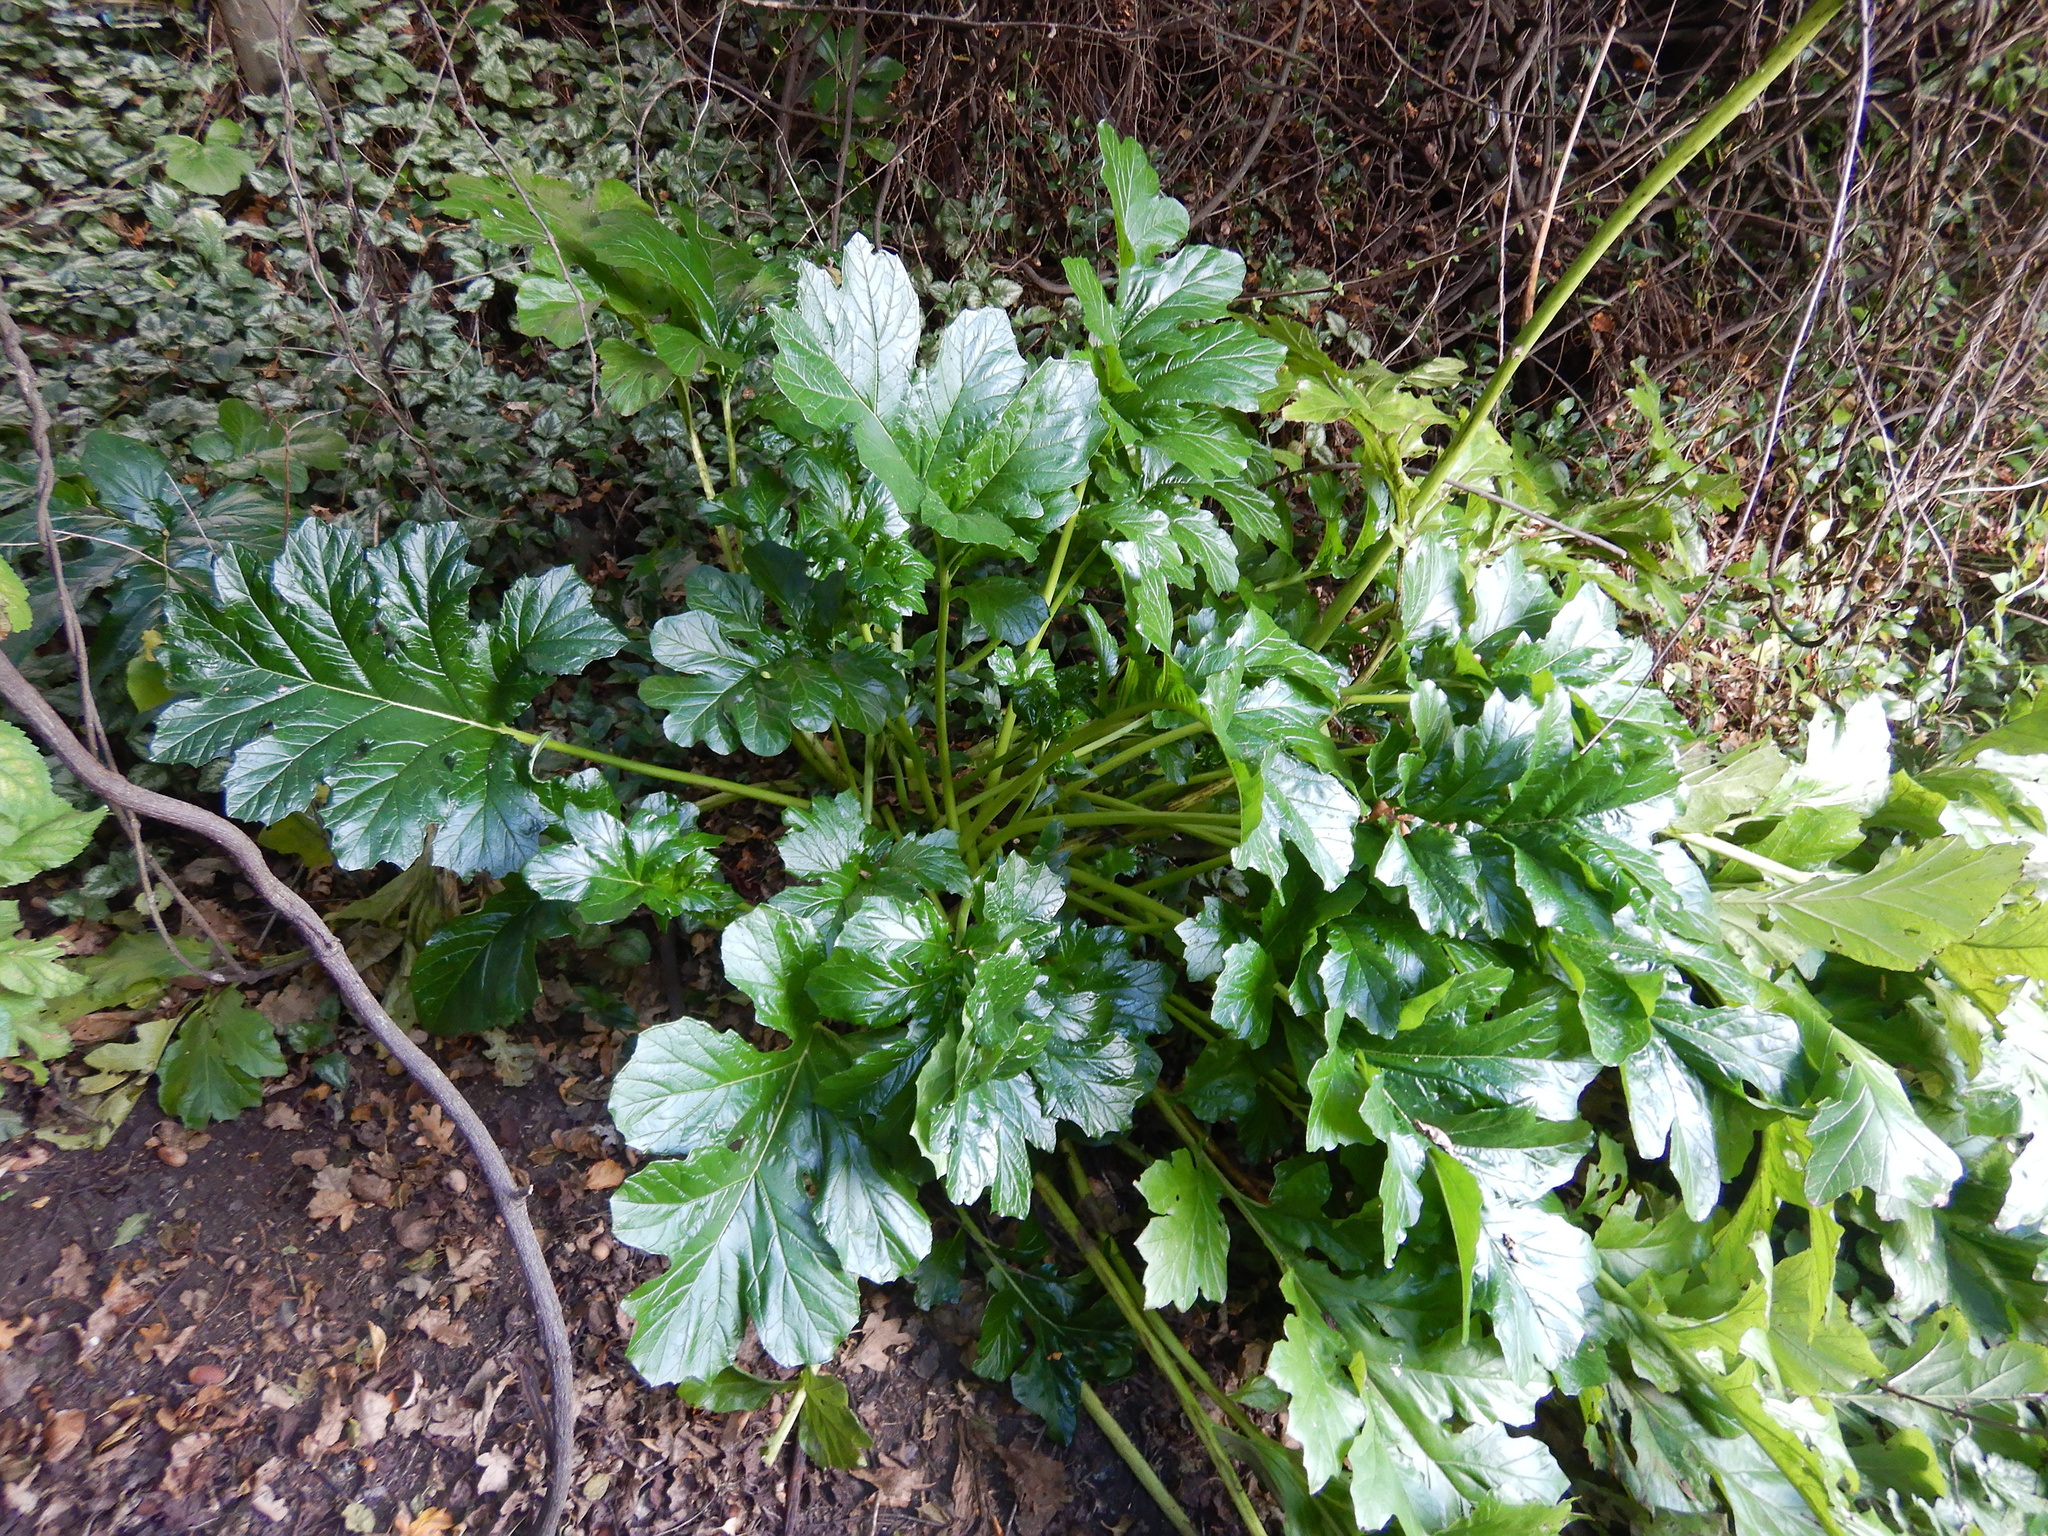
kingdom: Plantae
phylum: Tracheophyta
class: Magnoliopsida
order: Lamiales
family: Acanthaceae
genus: Acanthus
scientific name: Acanthus mollis
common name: Bear's-breech
